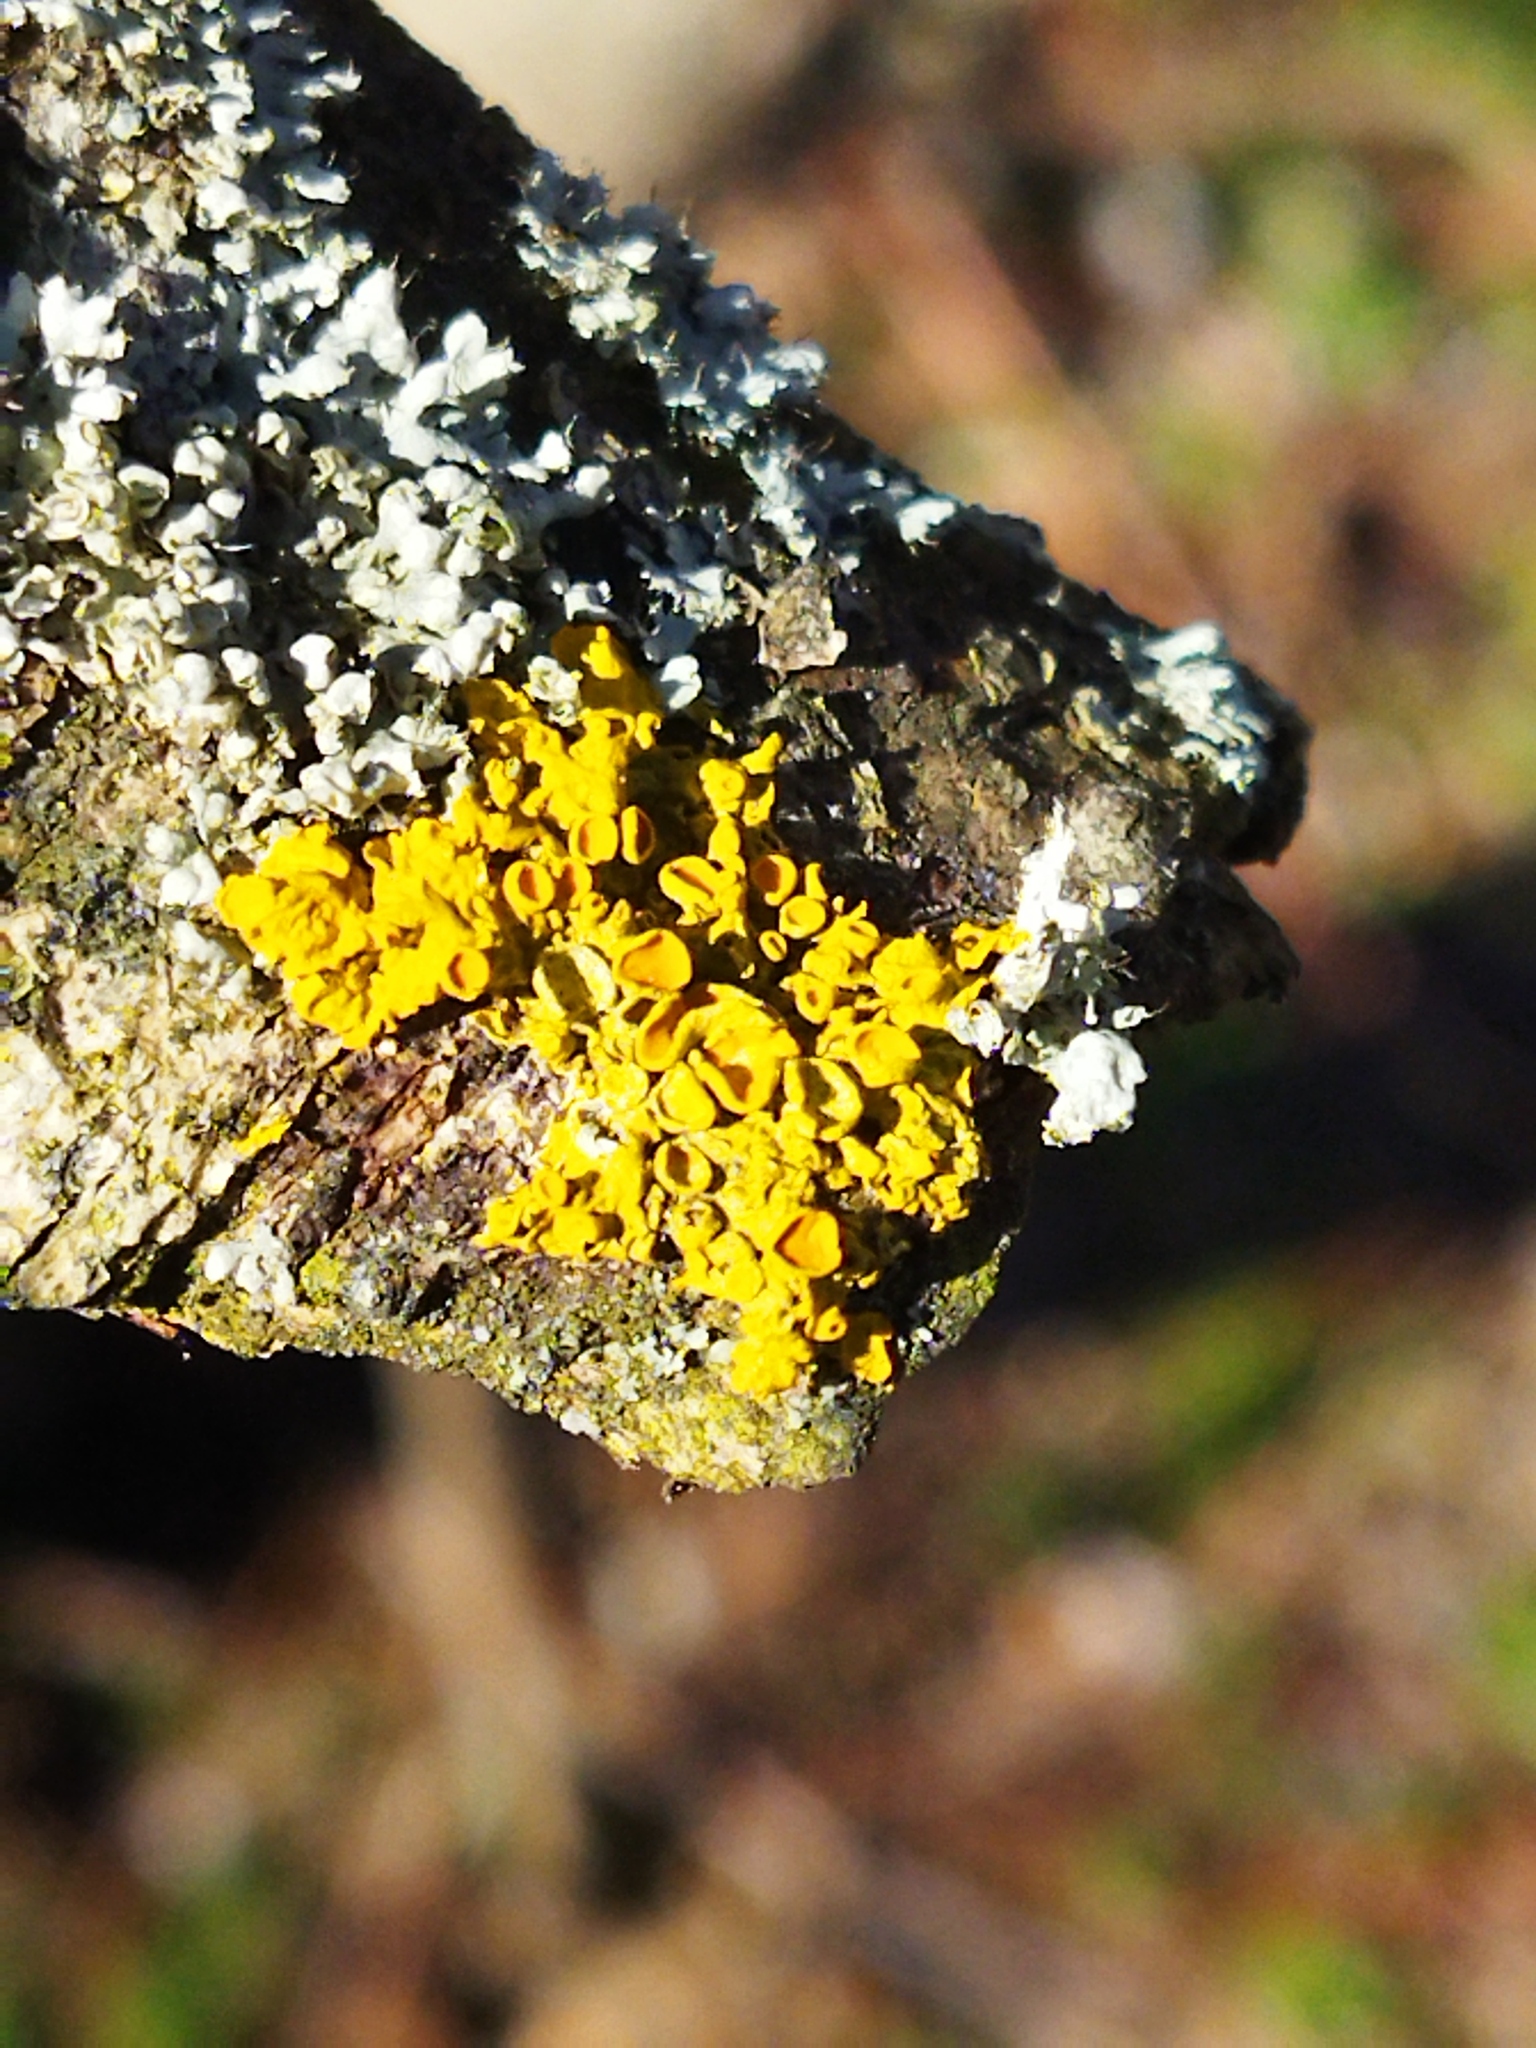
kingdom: Fungi
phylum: Ascomycota
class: Lecanoromycetes
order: Teloschistales
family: Teloschistaceae
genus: Xanthoria
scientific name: Xanthoria parietina
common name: Common orange lichen
